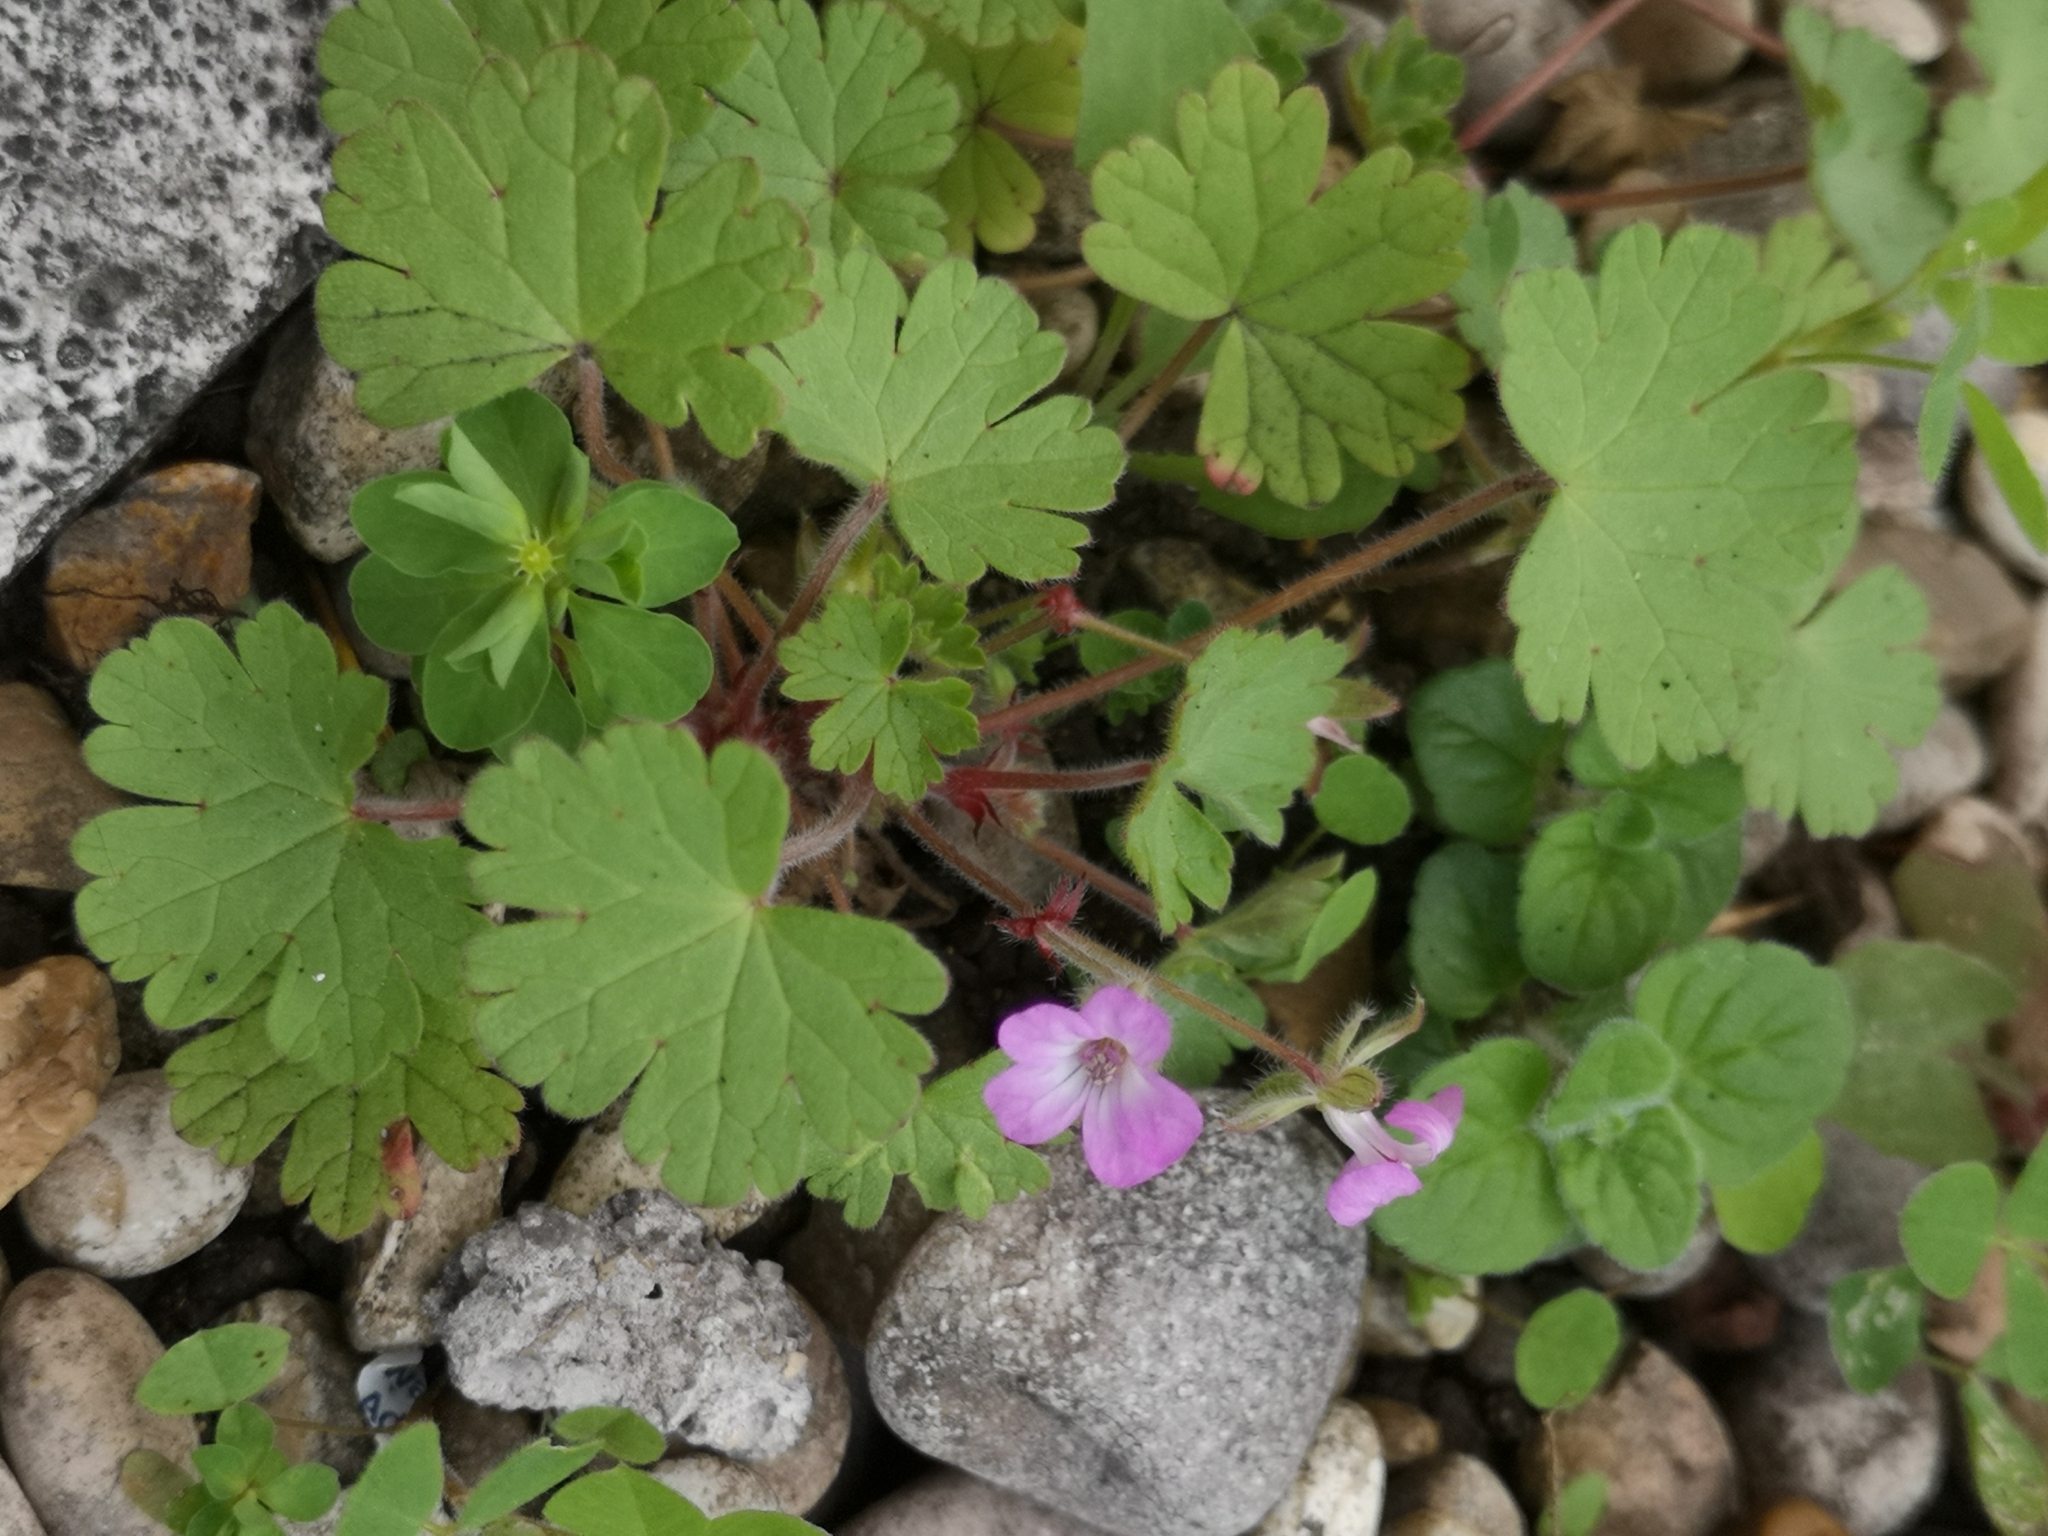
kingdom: Plantae
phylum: Tracheophyta
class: Magnoliopsida
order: Geraniales
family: Geraniaceae
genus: Geranium
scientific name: Geranium rotundifolium
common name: Round-leaved crane's-bill
